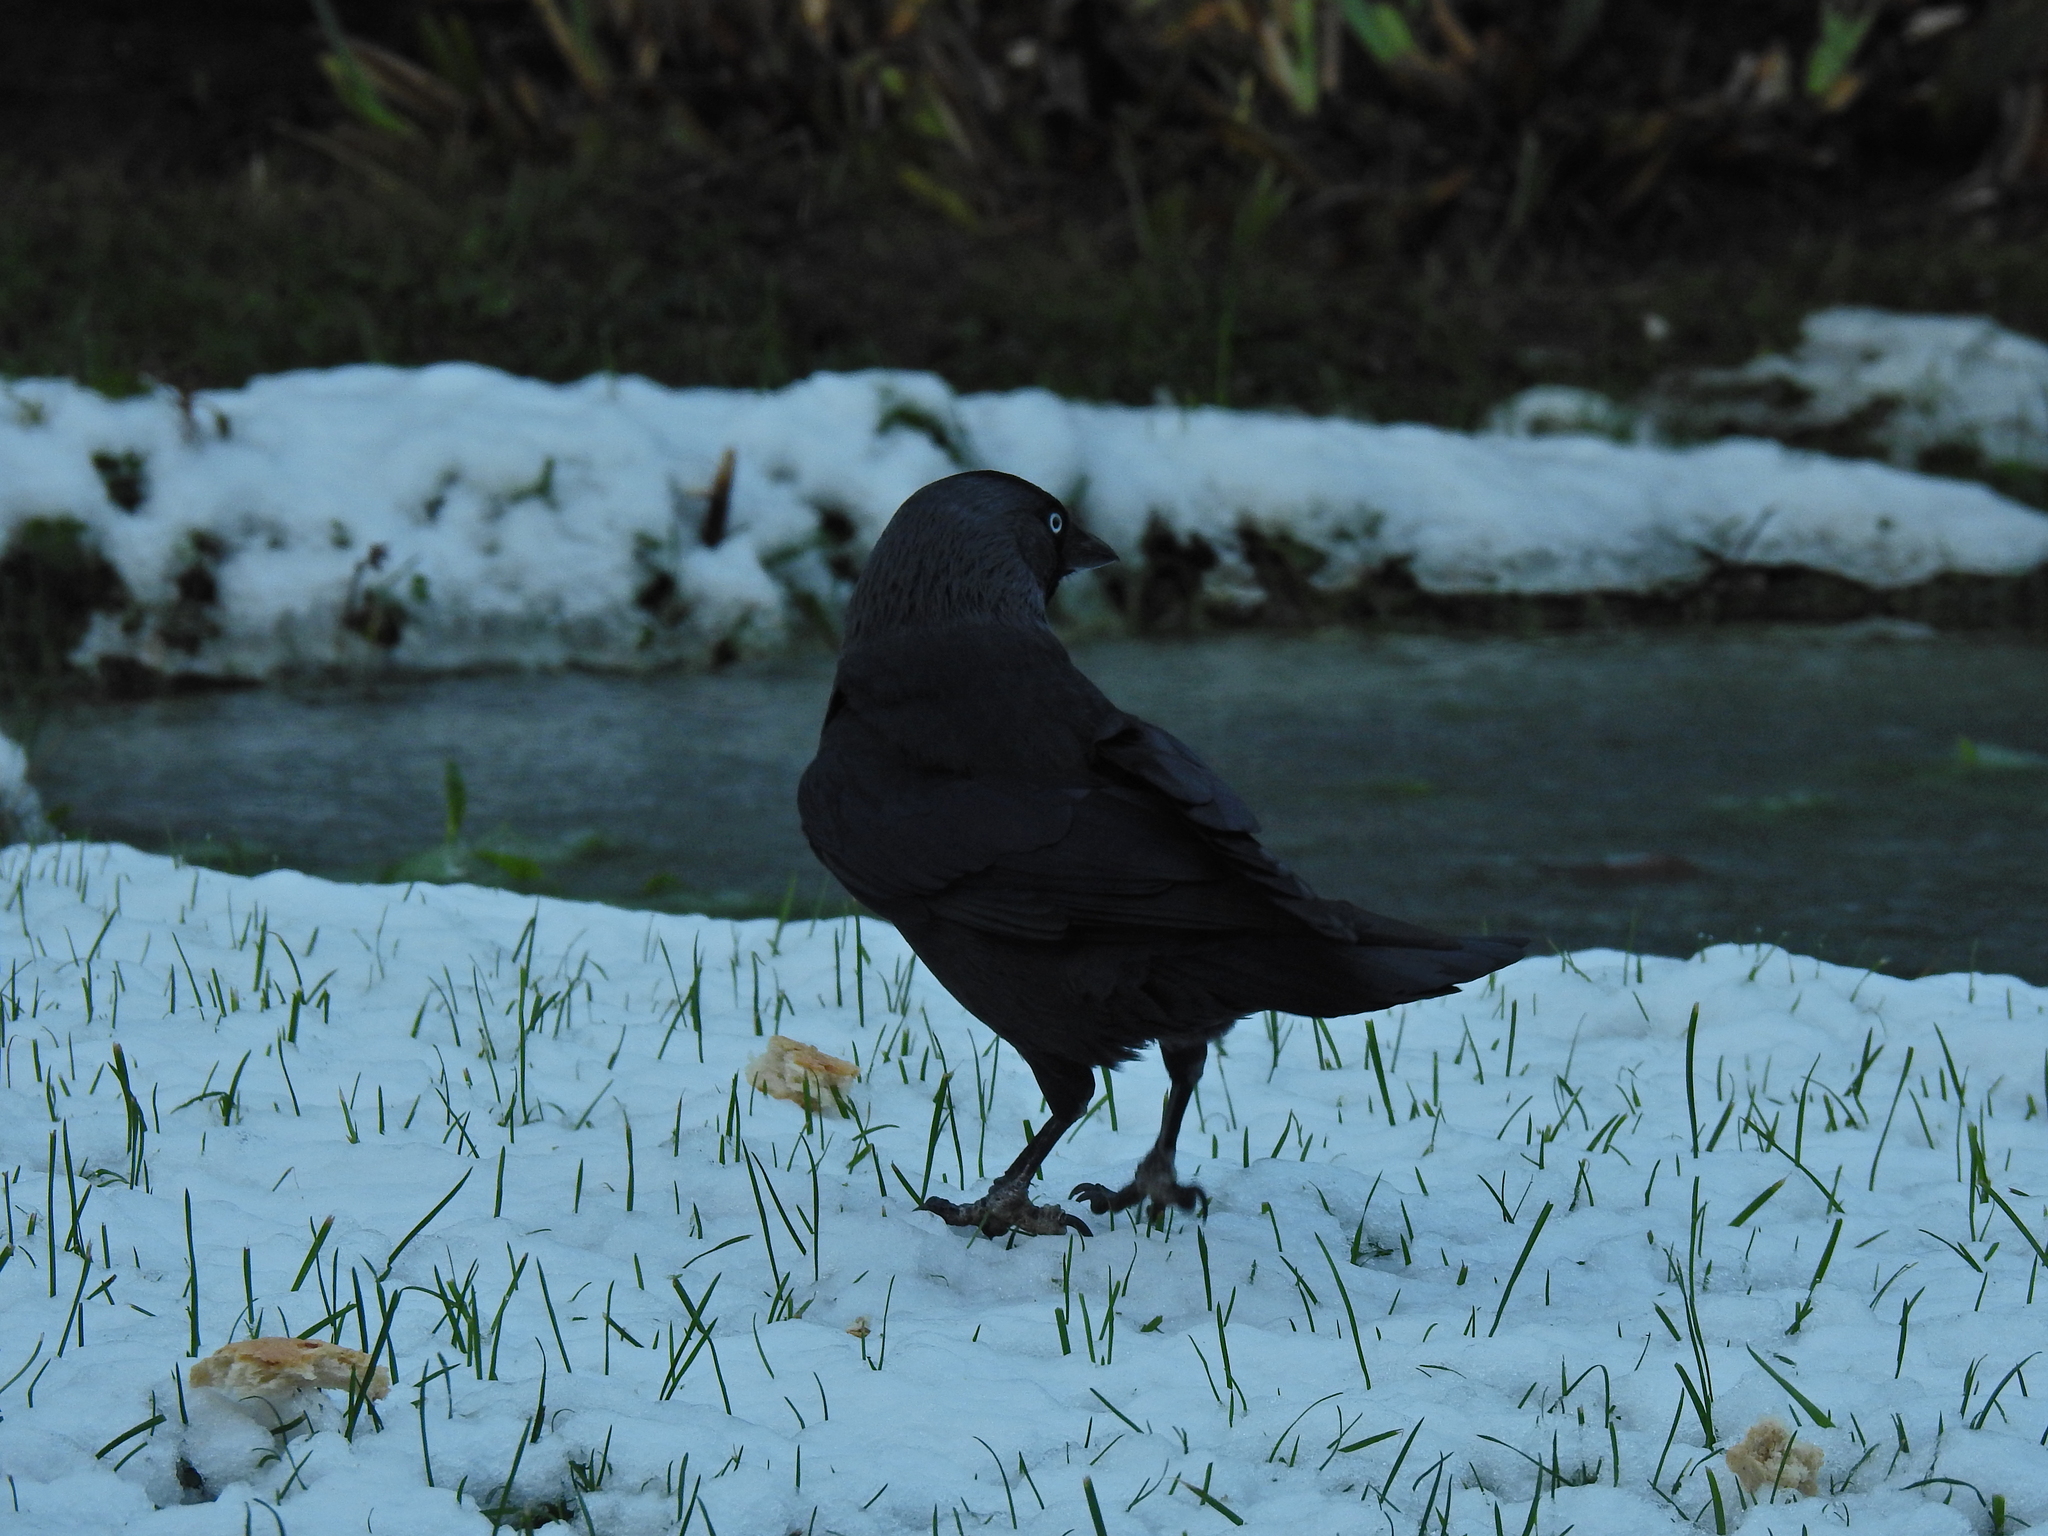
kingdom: Animalia
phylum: Chordata
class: Aves
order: Passeriformes
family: Corvidae
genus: Coloeus
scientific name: Coloeus monedula
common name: Western jackdaw
